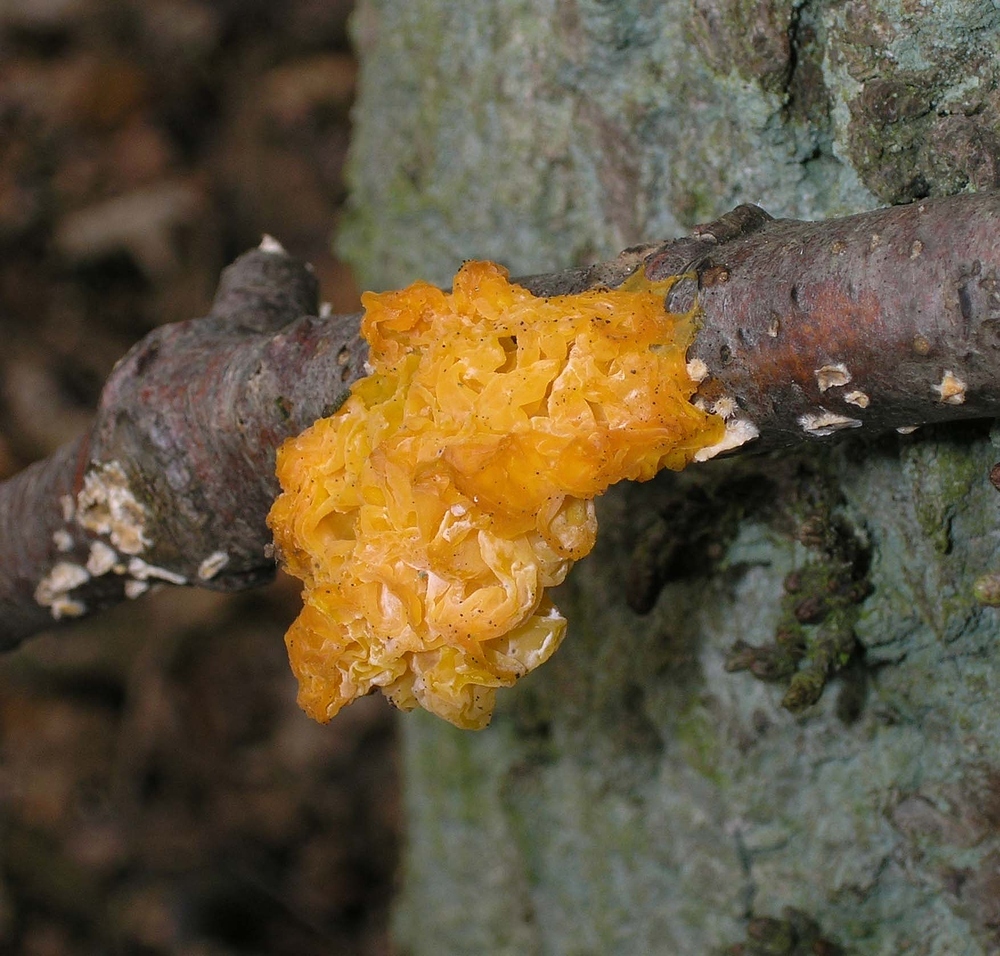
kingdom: Fungi
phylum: Basidiomycota
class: Tremellomycetes
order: Tremellales
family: Naemateliaceae
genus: Naematelia
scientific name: Naematelia aurantia
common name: Golden ear
